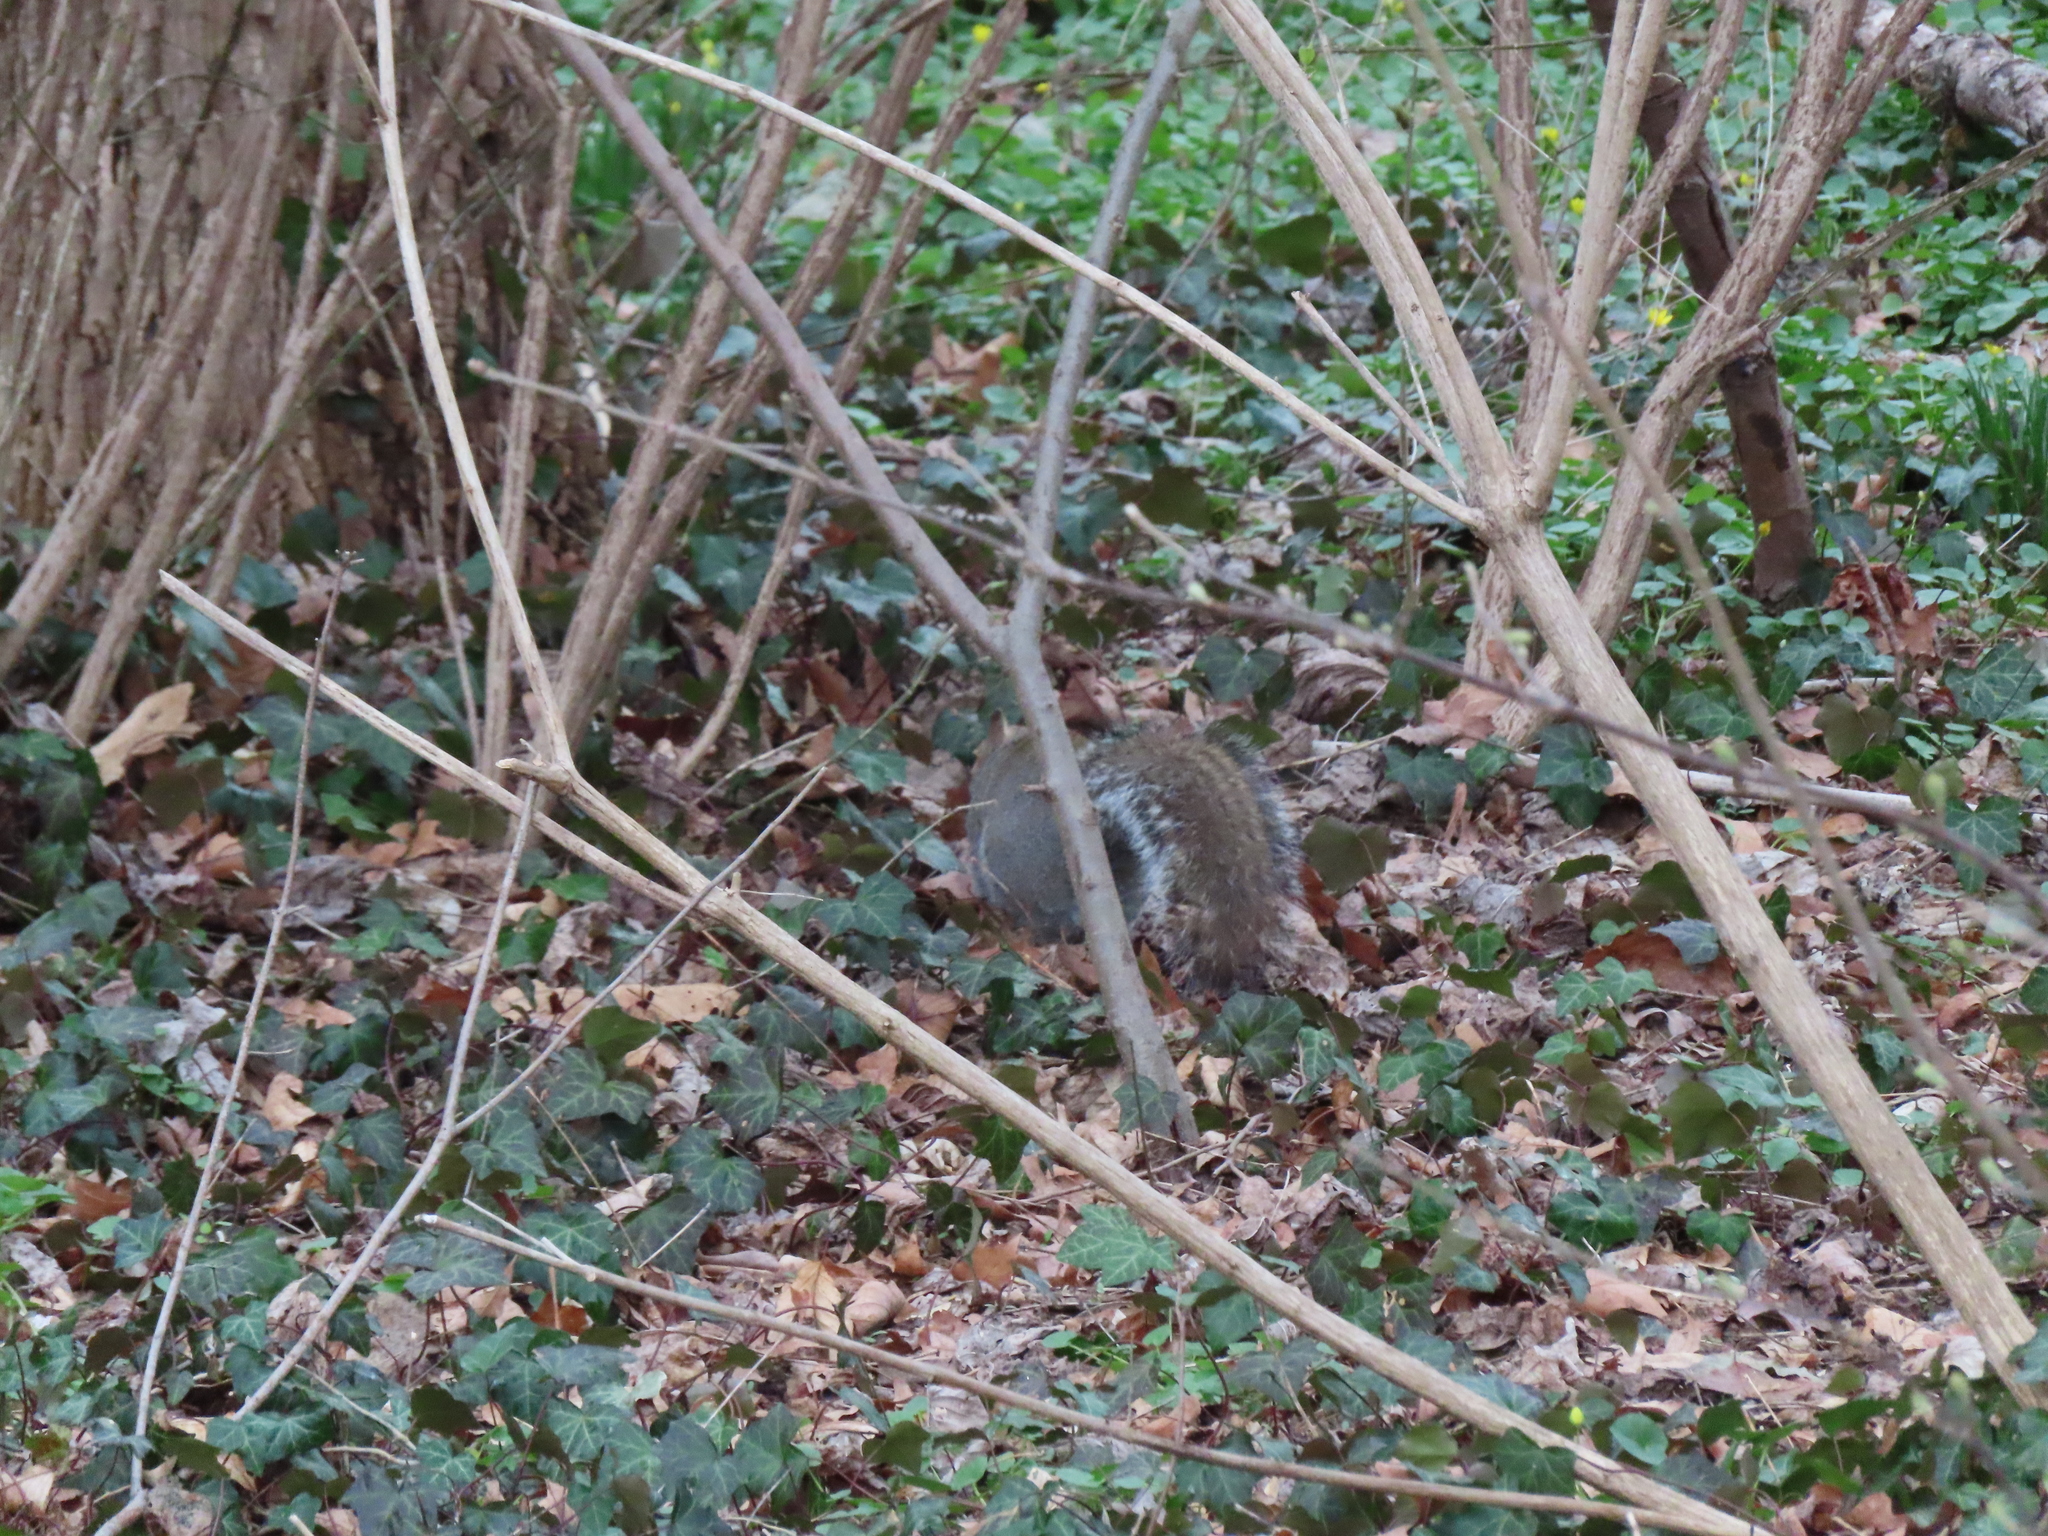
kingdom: Animalia
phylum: Chordata
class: Mammalia
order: Rodentia
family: Sciuridae
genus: Sciurus
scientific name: Sciurus carolinensis
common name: Eastern gray squirrel
